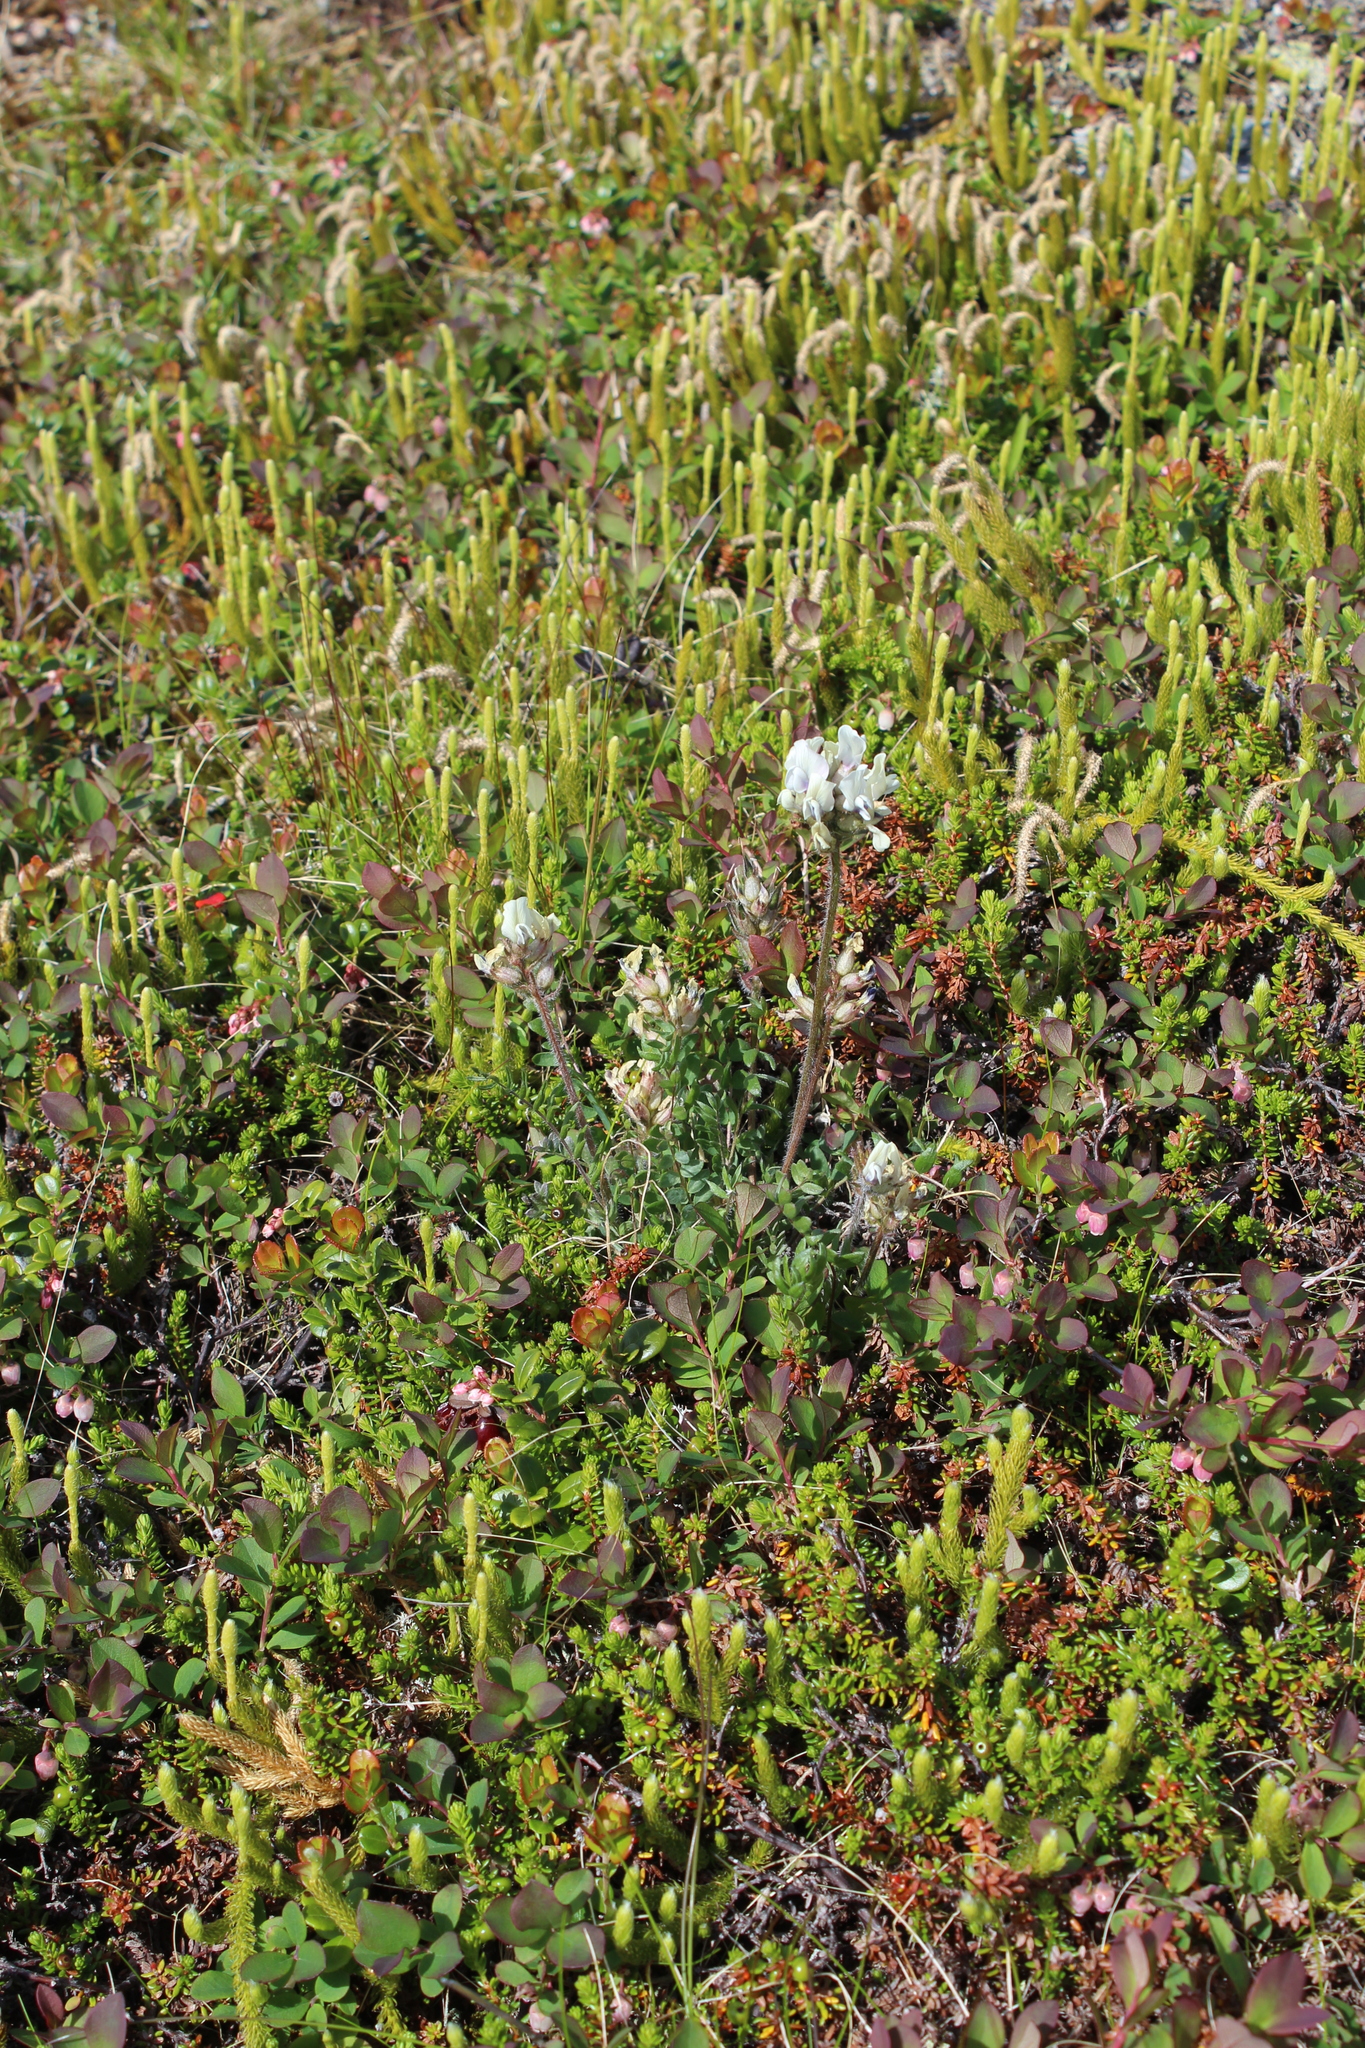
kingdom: Plantae
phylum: Tracheophyta
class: Magnoliopsida
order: Fabales
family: Fabaceae
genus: Oxytropis
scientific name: Oxytropis sordida
